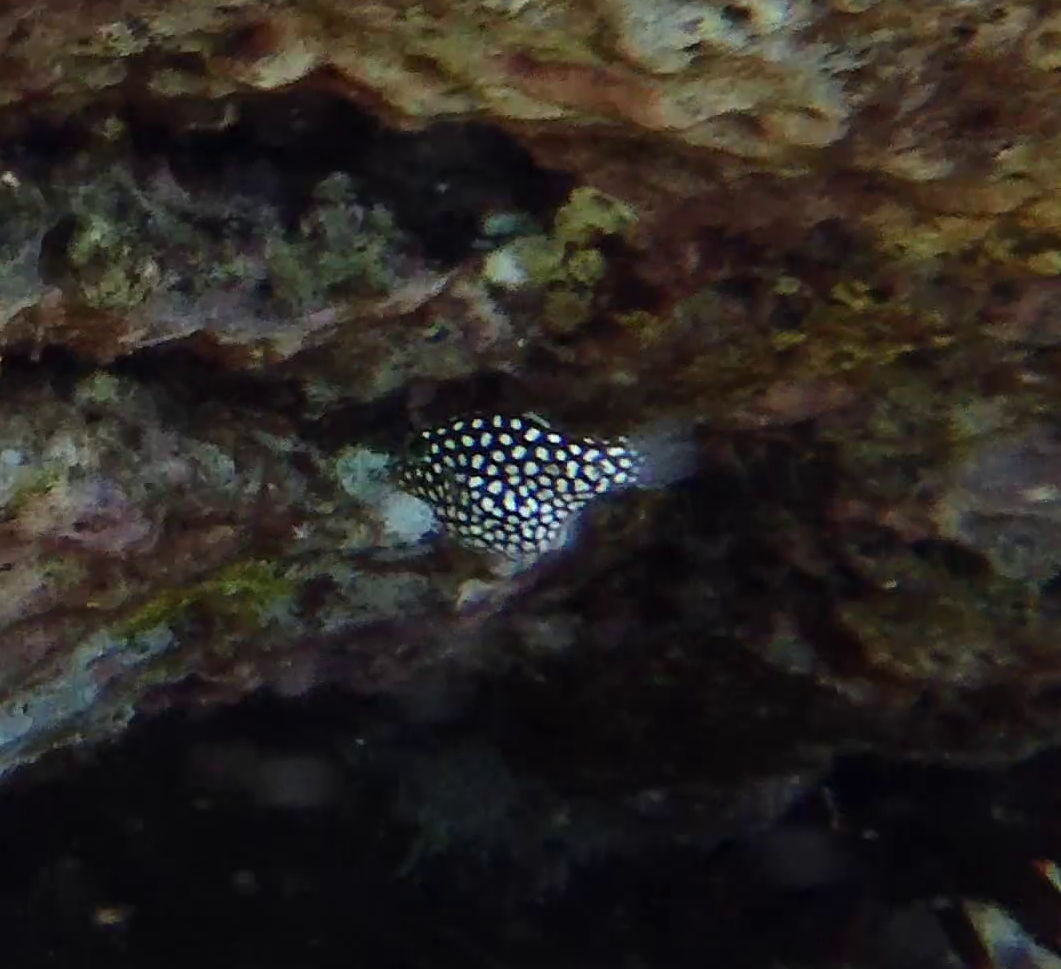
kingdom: Animalia
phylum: Chordata
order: Tetraodontiformes
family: Tetraodontidae
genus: Canthigaster
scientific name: Canthigaster jactator
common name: Hawaiian whitespotted toby
